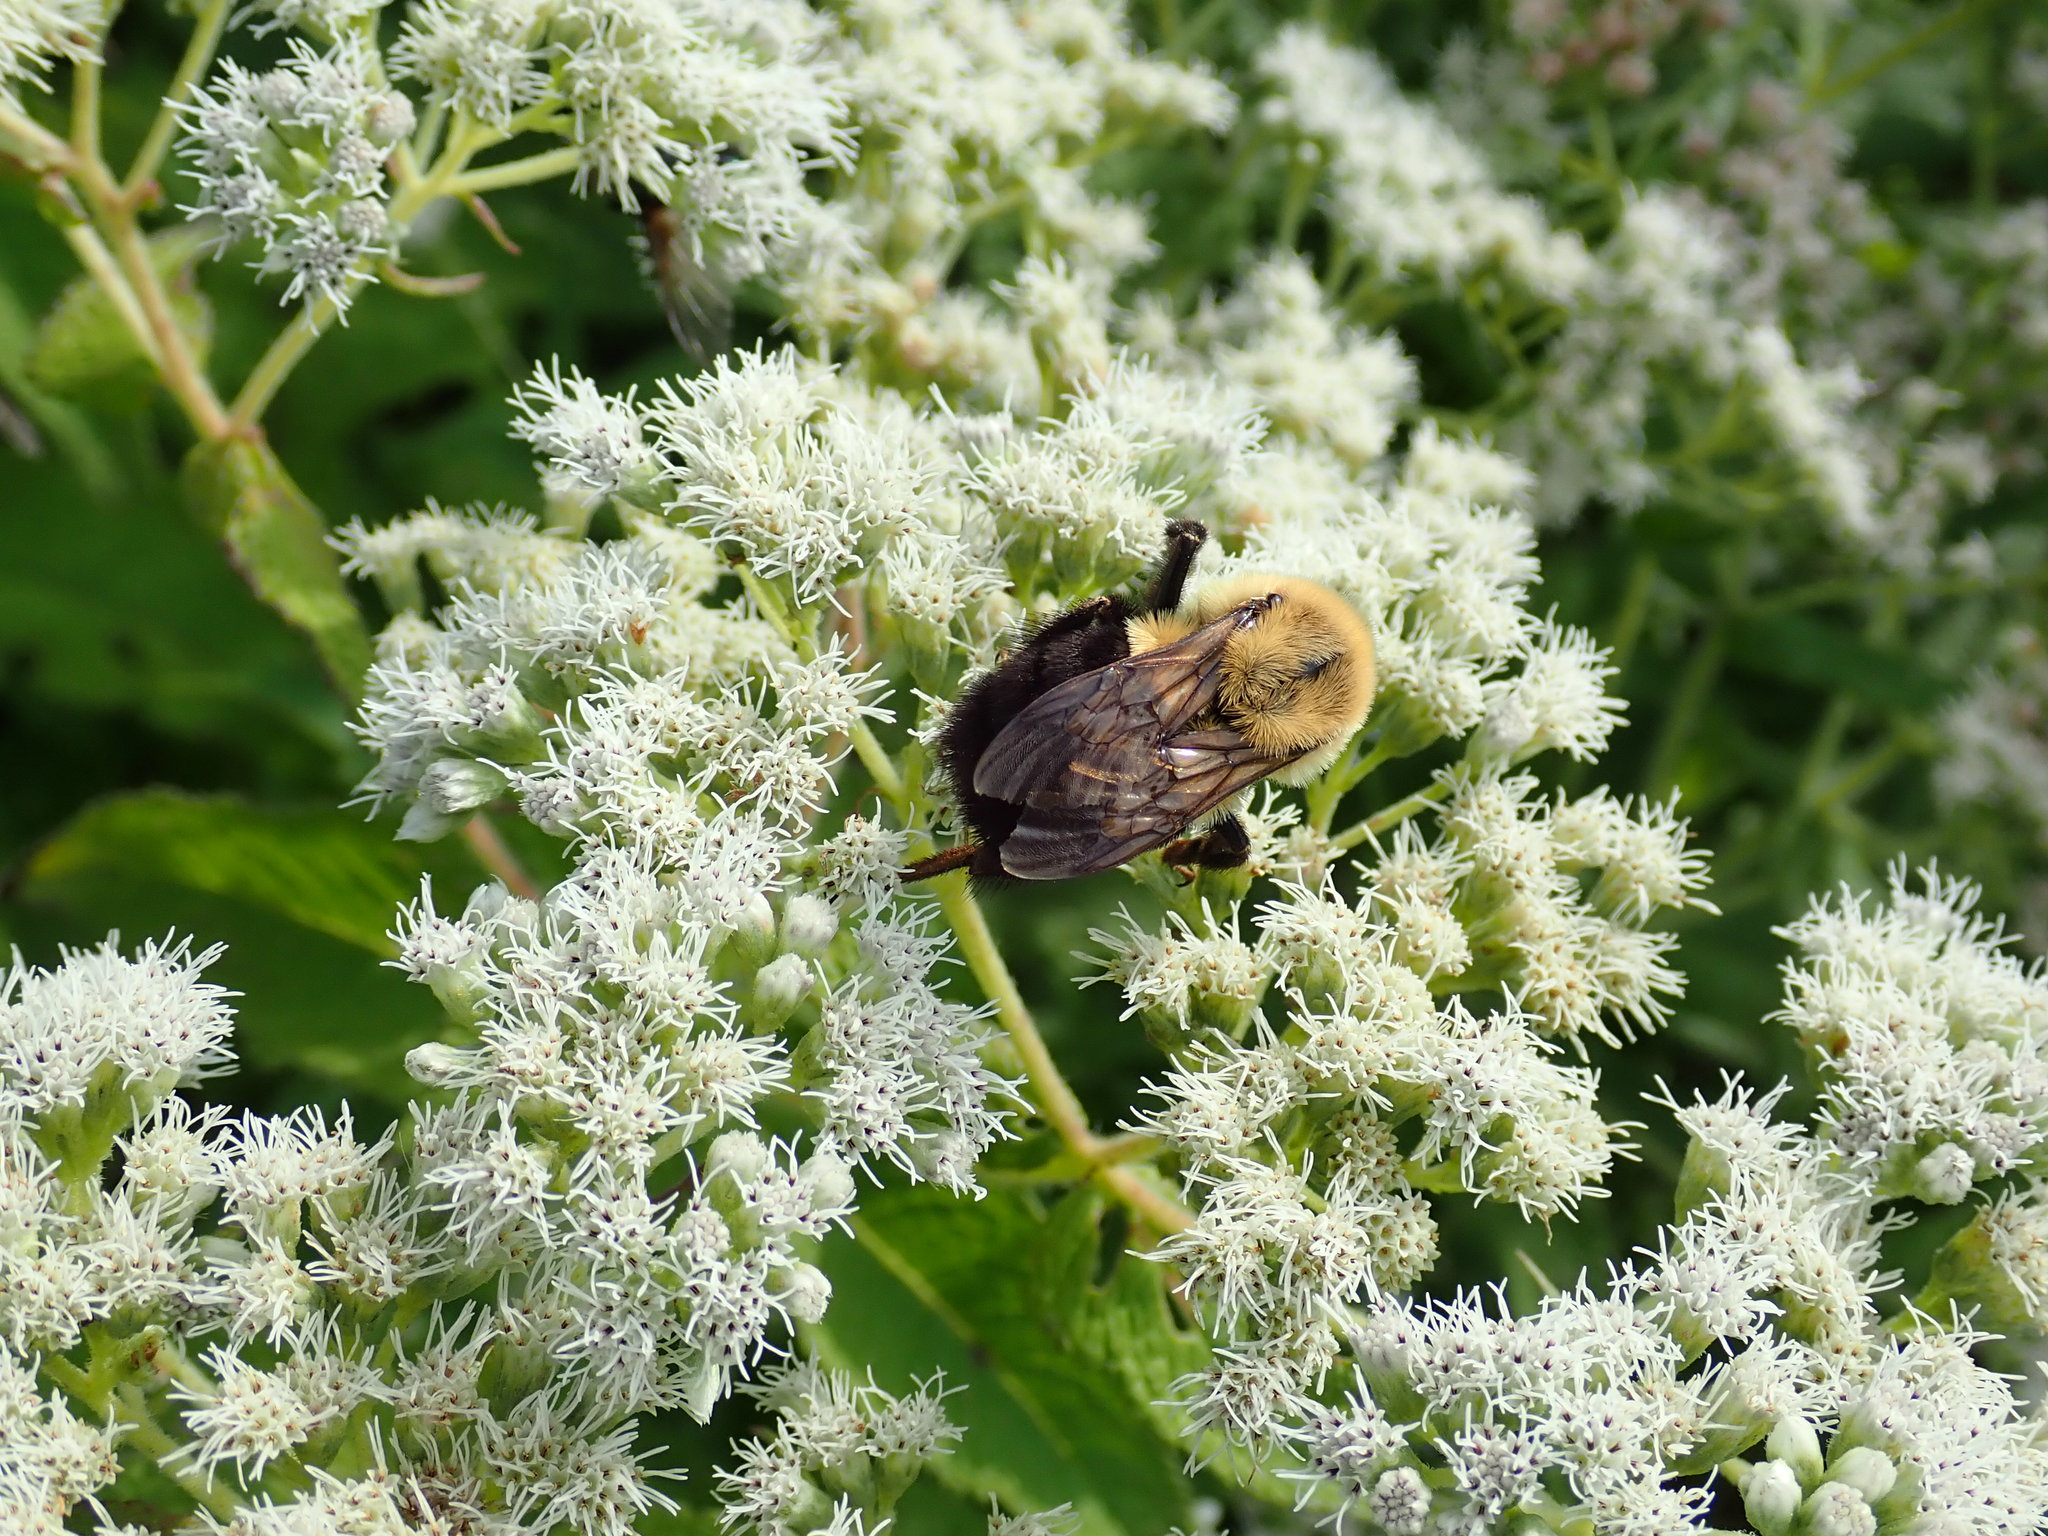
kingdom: Animalia
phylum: Arthropoda
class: Insecta
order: Hymenoptera
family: Apidae
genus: Bombus
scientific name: Bombus impatiens
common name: Common eastern bumble bee
